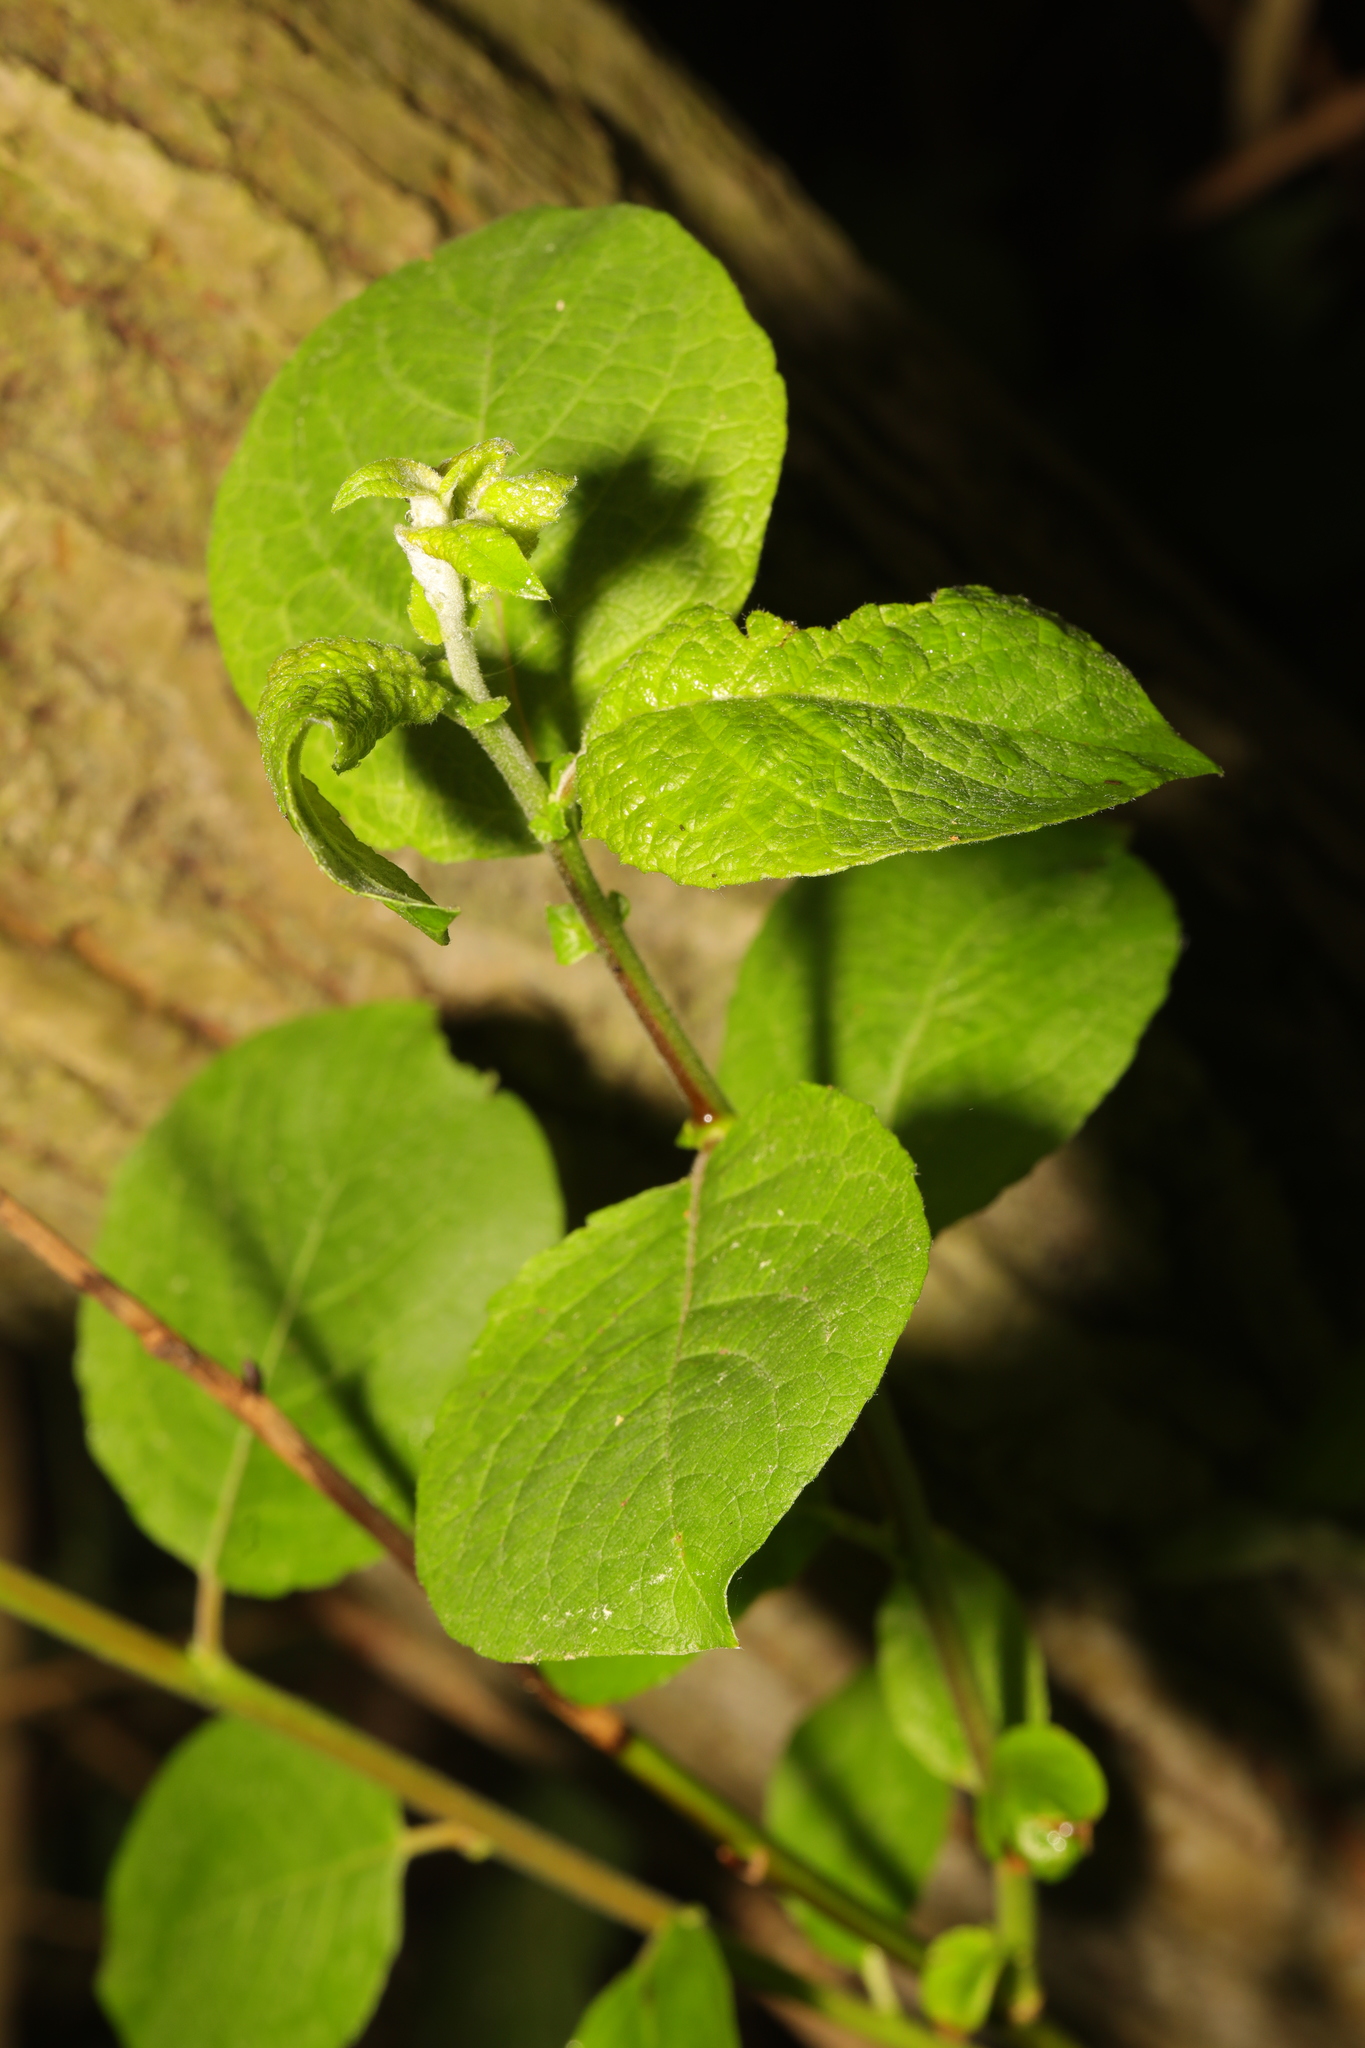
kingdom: Plantae
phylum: Tracheophyta
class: Magnoliopsida
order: Malpighiales
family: Salicaceae
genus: Salix
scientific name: Salix caprea
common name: Goat willow
